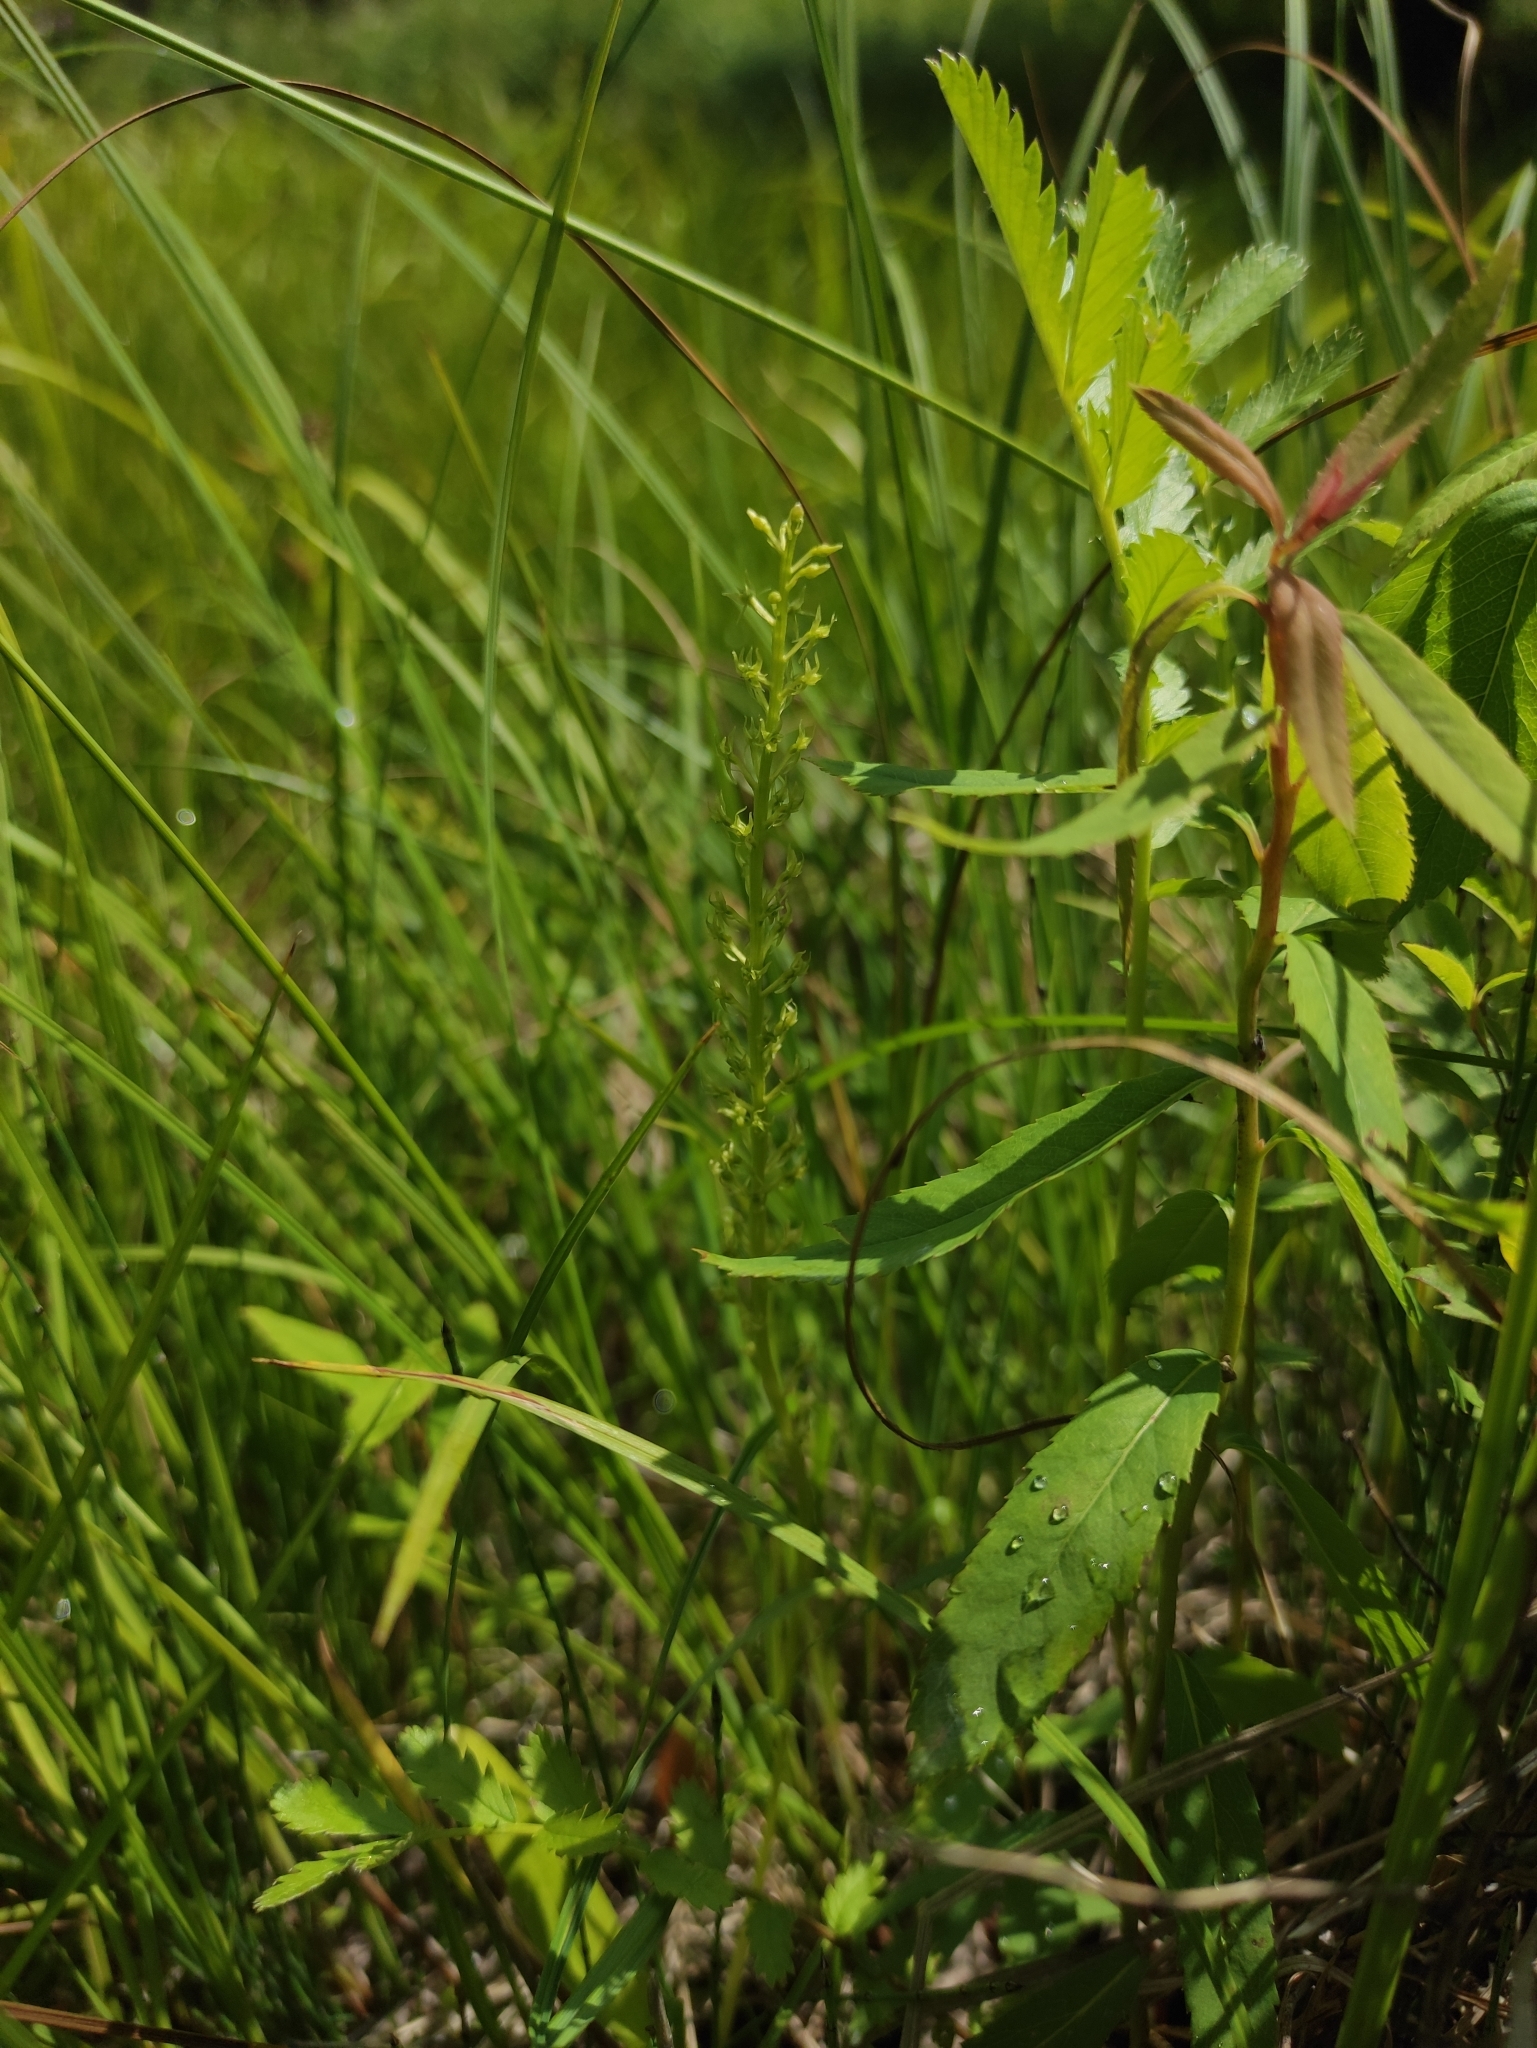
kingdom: Plantae
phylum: Tracheophyta
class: Liliopsida
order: Asparagales
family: Orchidaceae
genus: Malaxis
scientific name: Malaxis monophyllos
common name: White adder's-mouth
